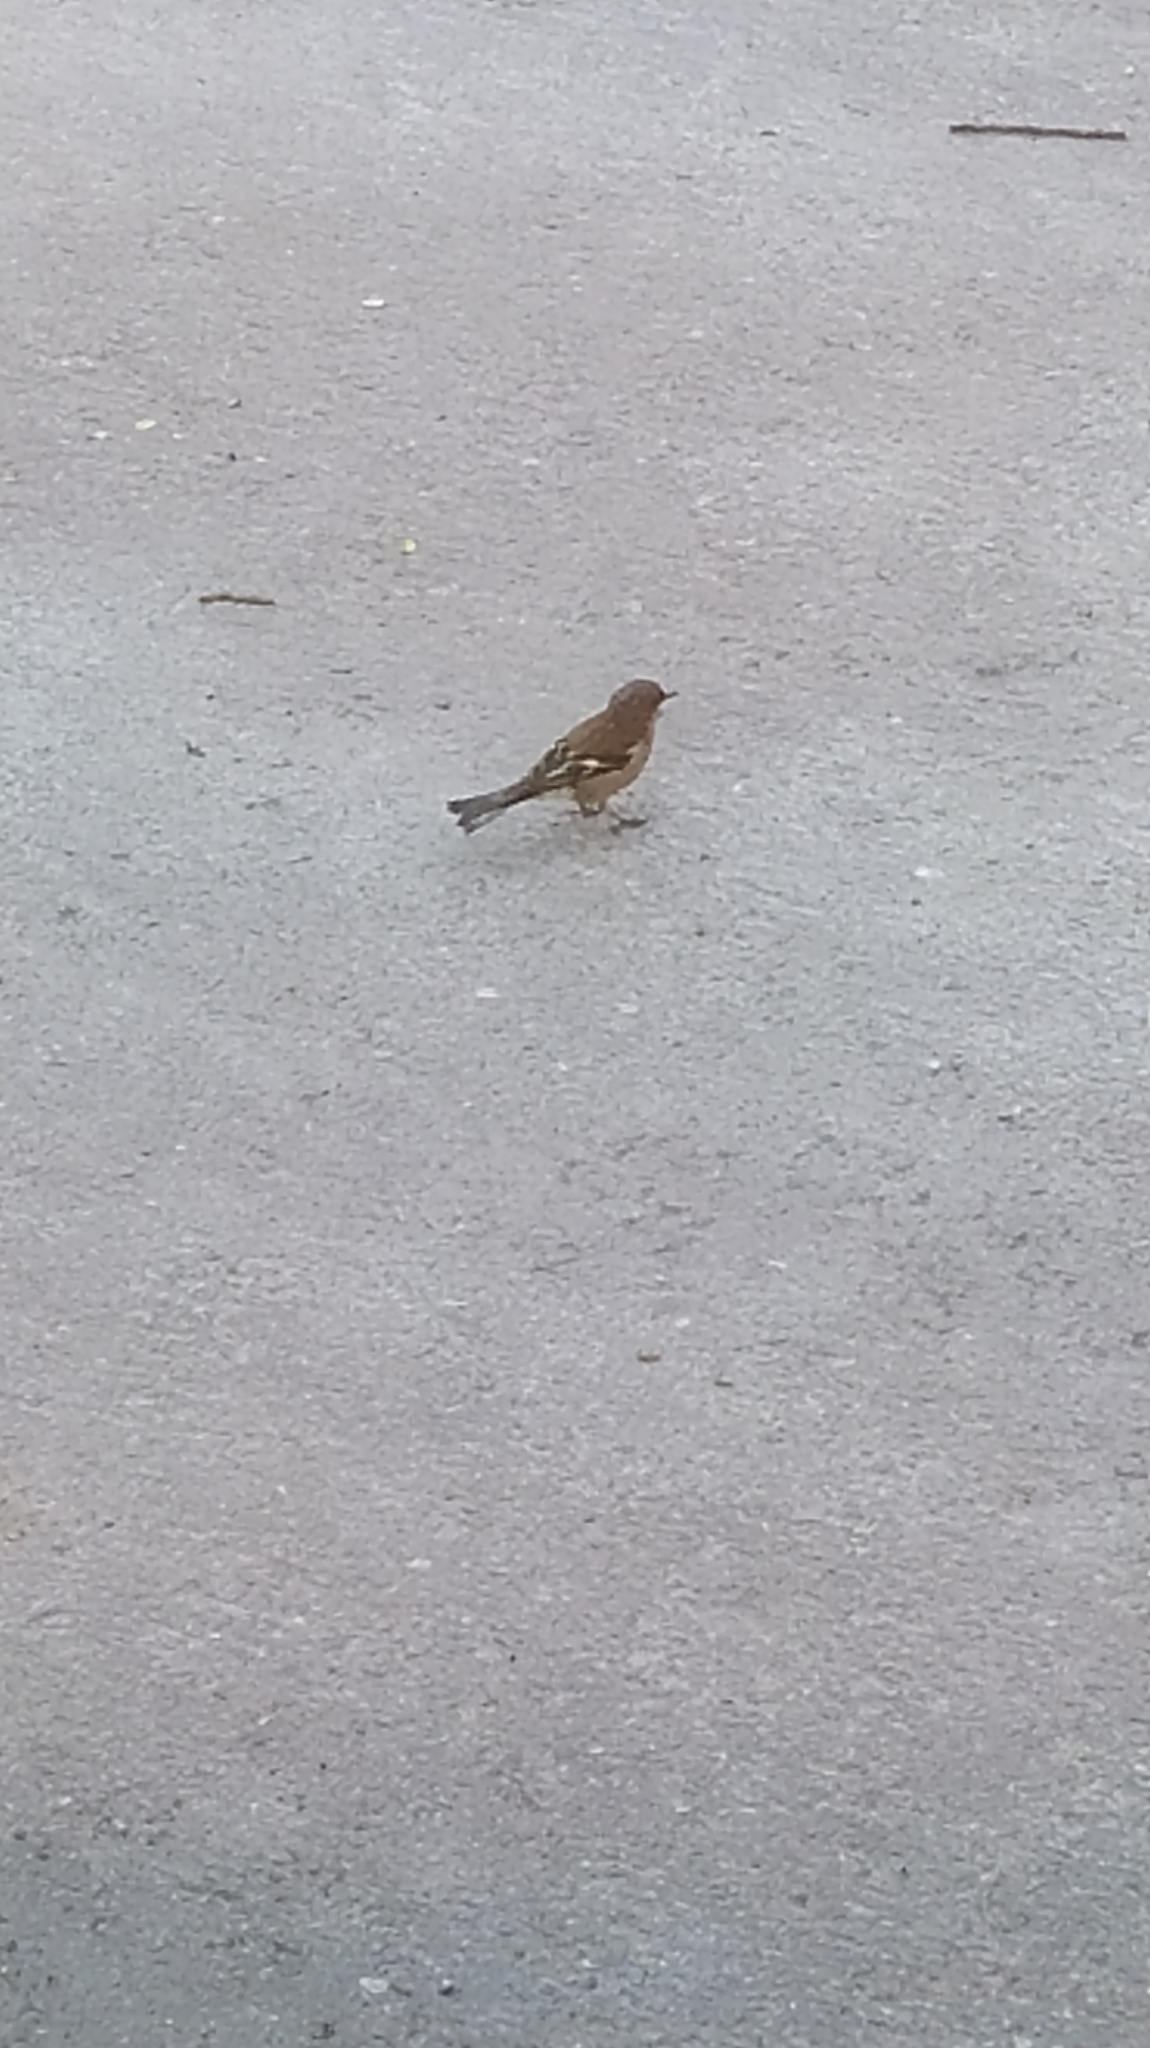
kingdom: Animalia
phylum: Chordata
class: Aves
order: Passeriformes
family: Fringillidae
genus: Fringilla
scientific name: Fringilla coelebs
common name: Common chaffinch
